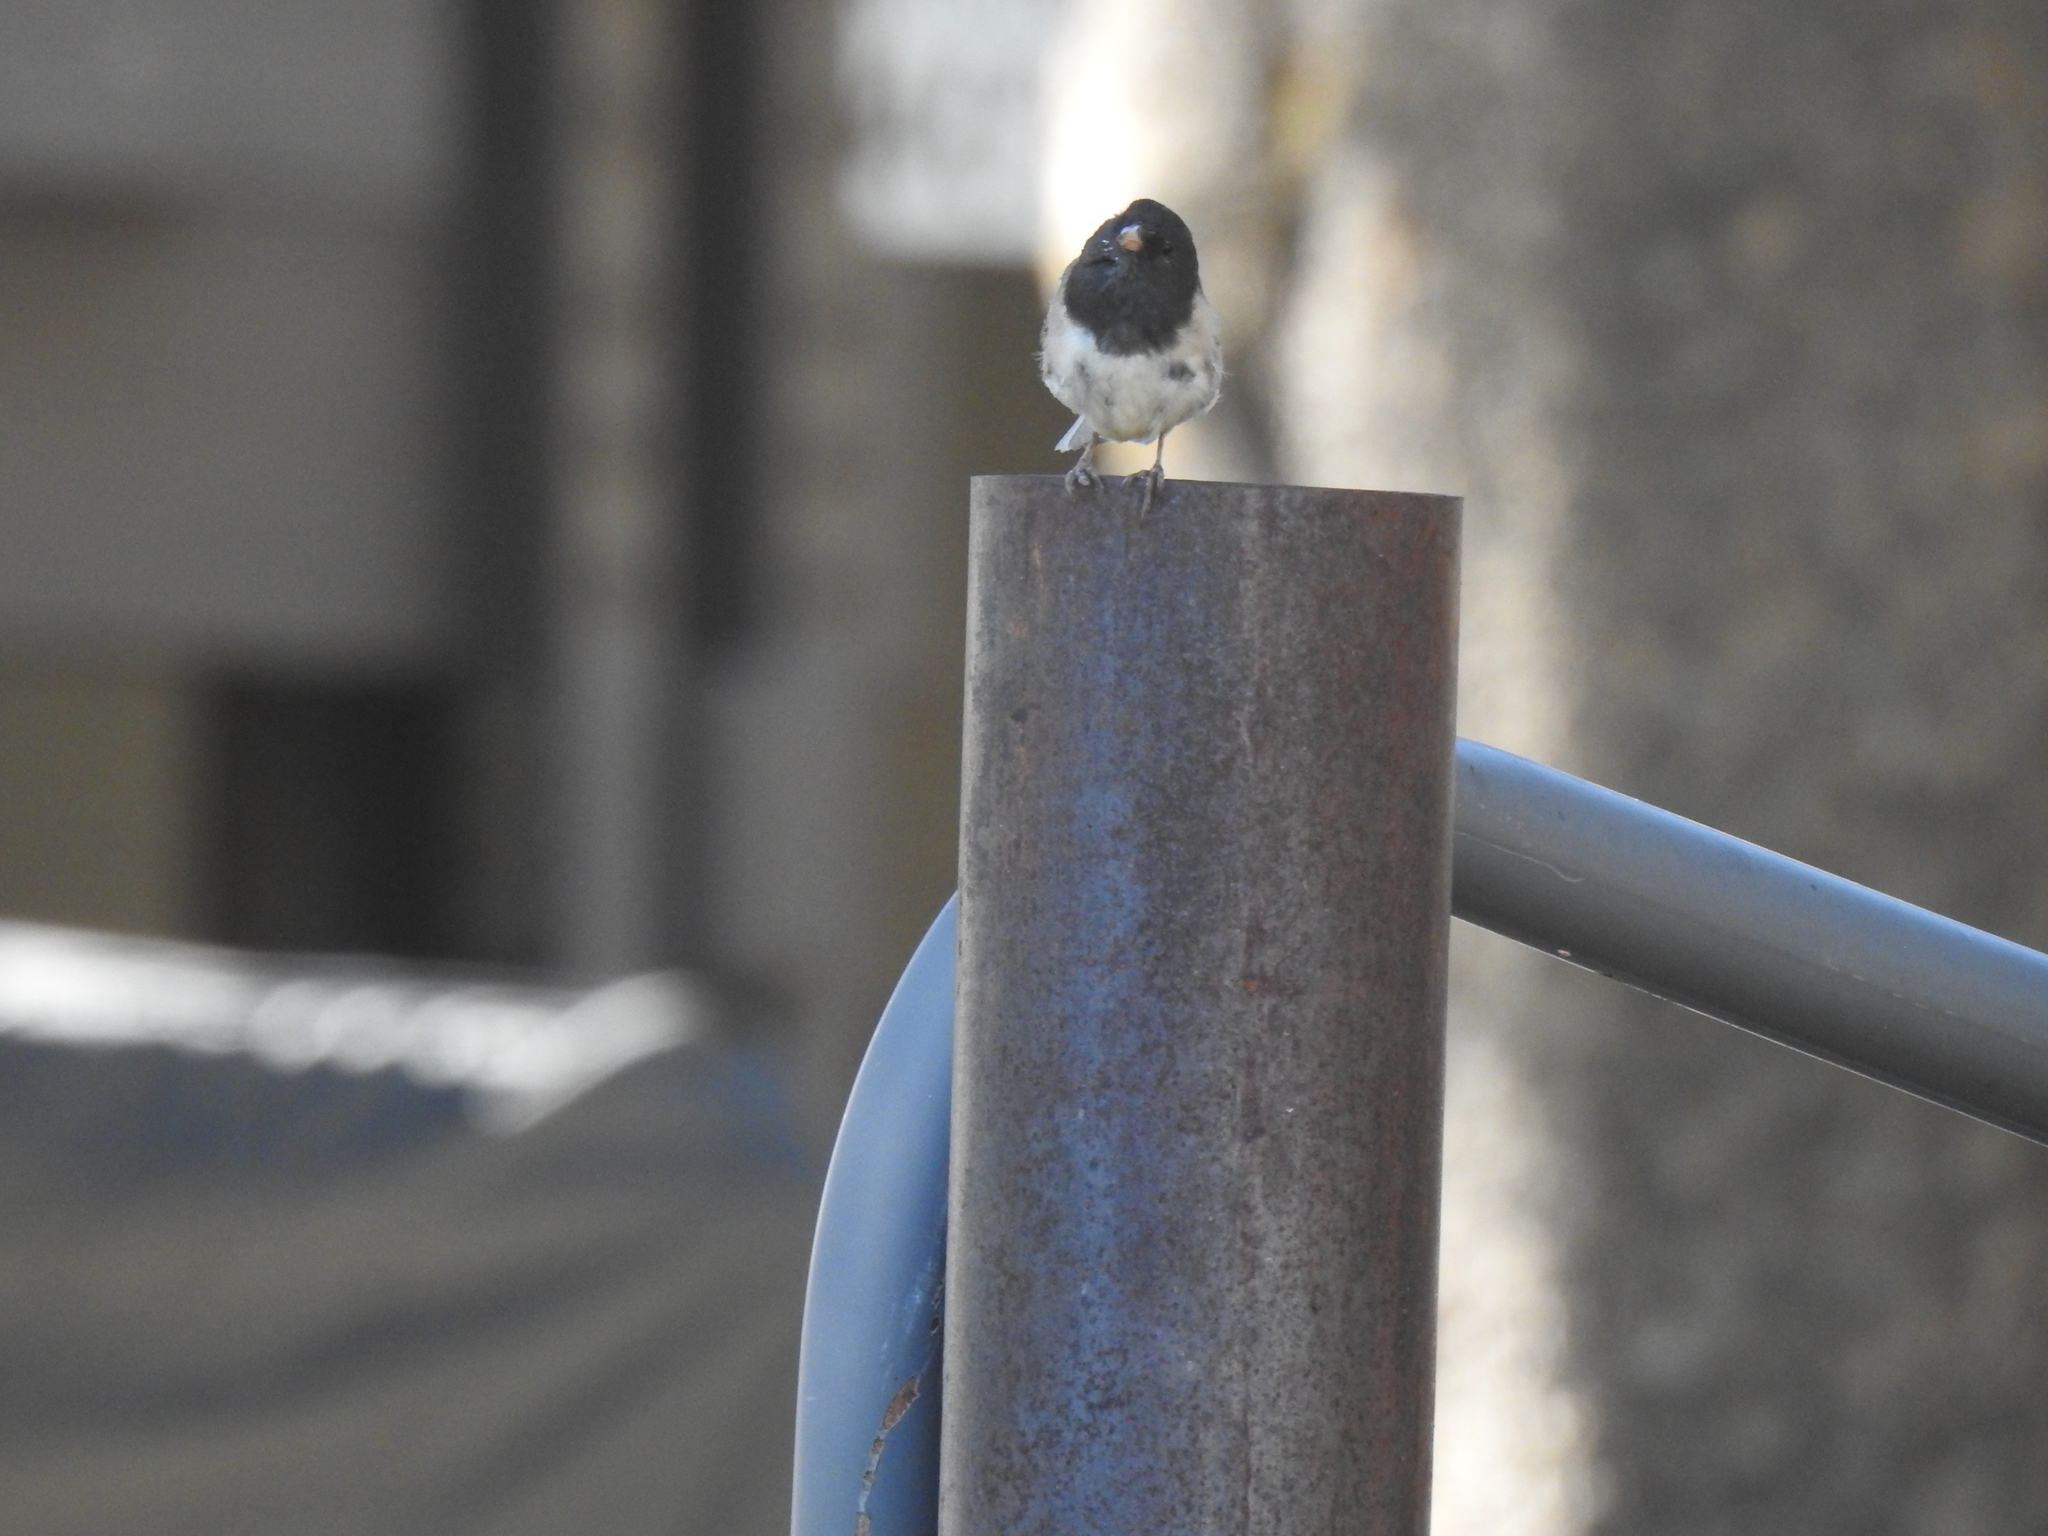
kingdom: Animalia
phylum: Chordata
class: Aves
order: Passeriformes
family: Passerellidae
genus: Junco
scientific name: Junco hyemalis
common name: Dark-eyed junco
